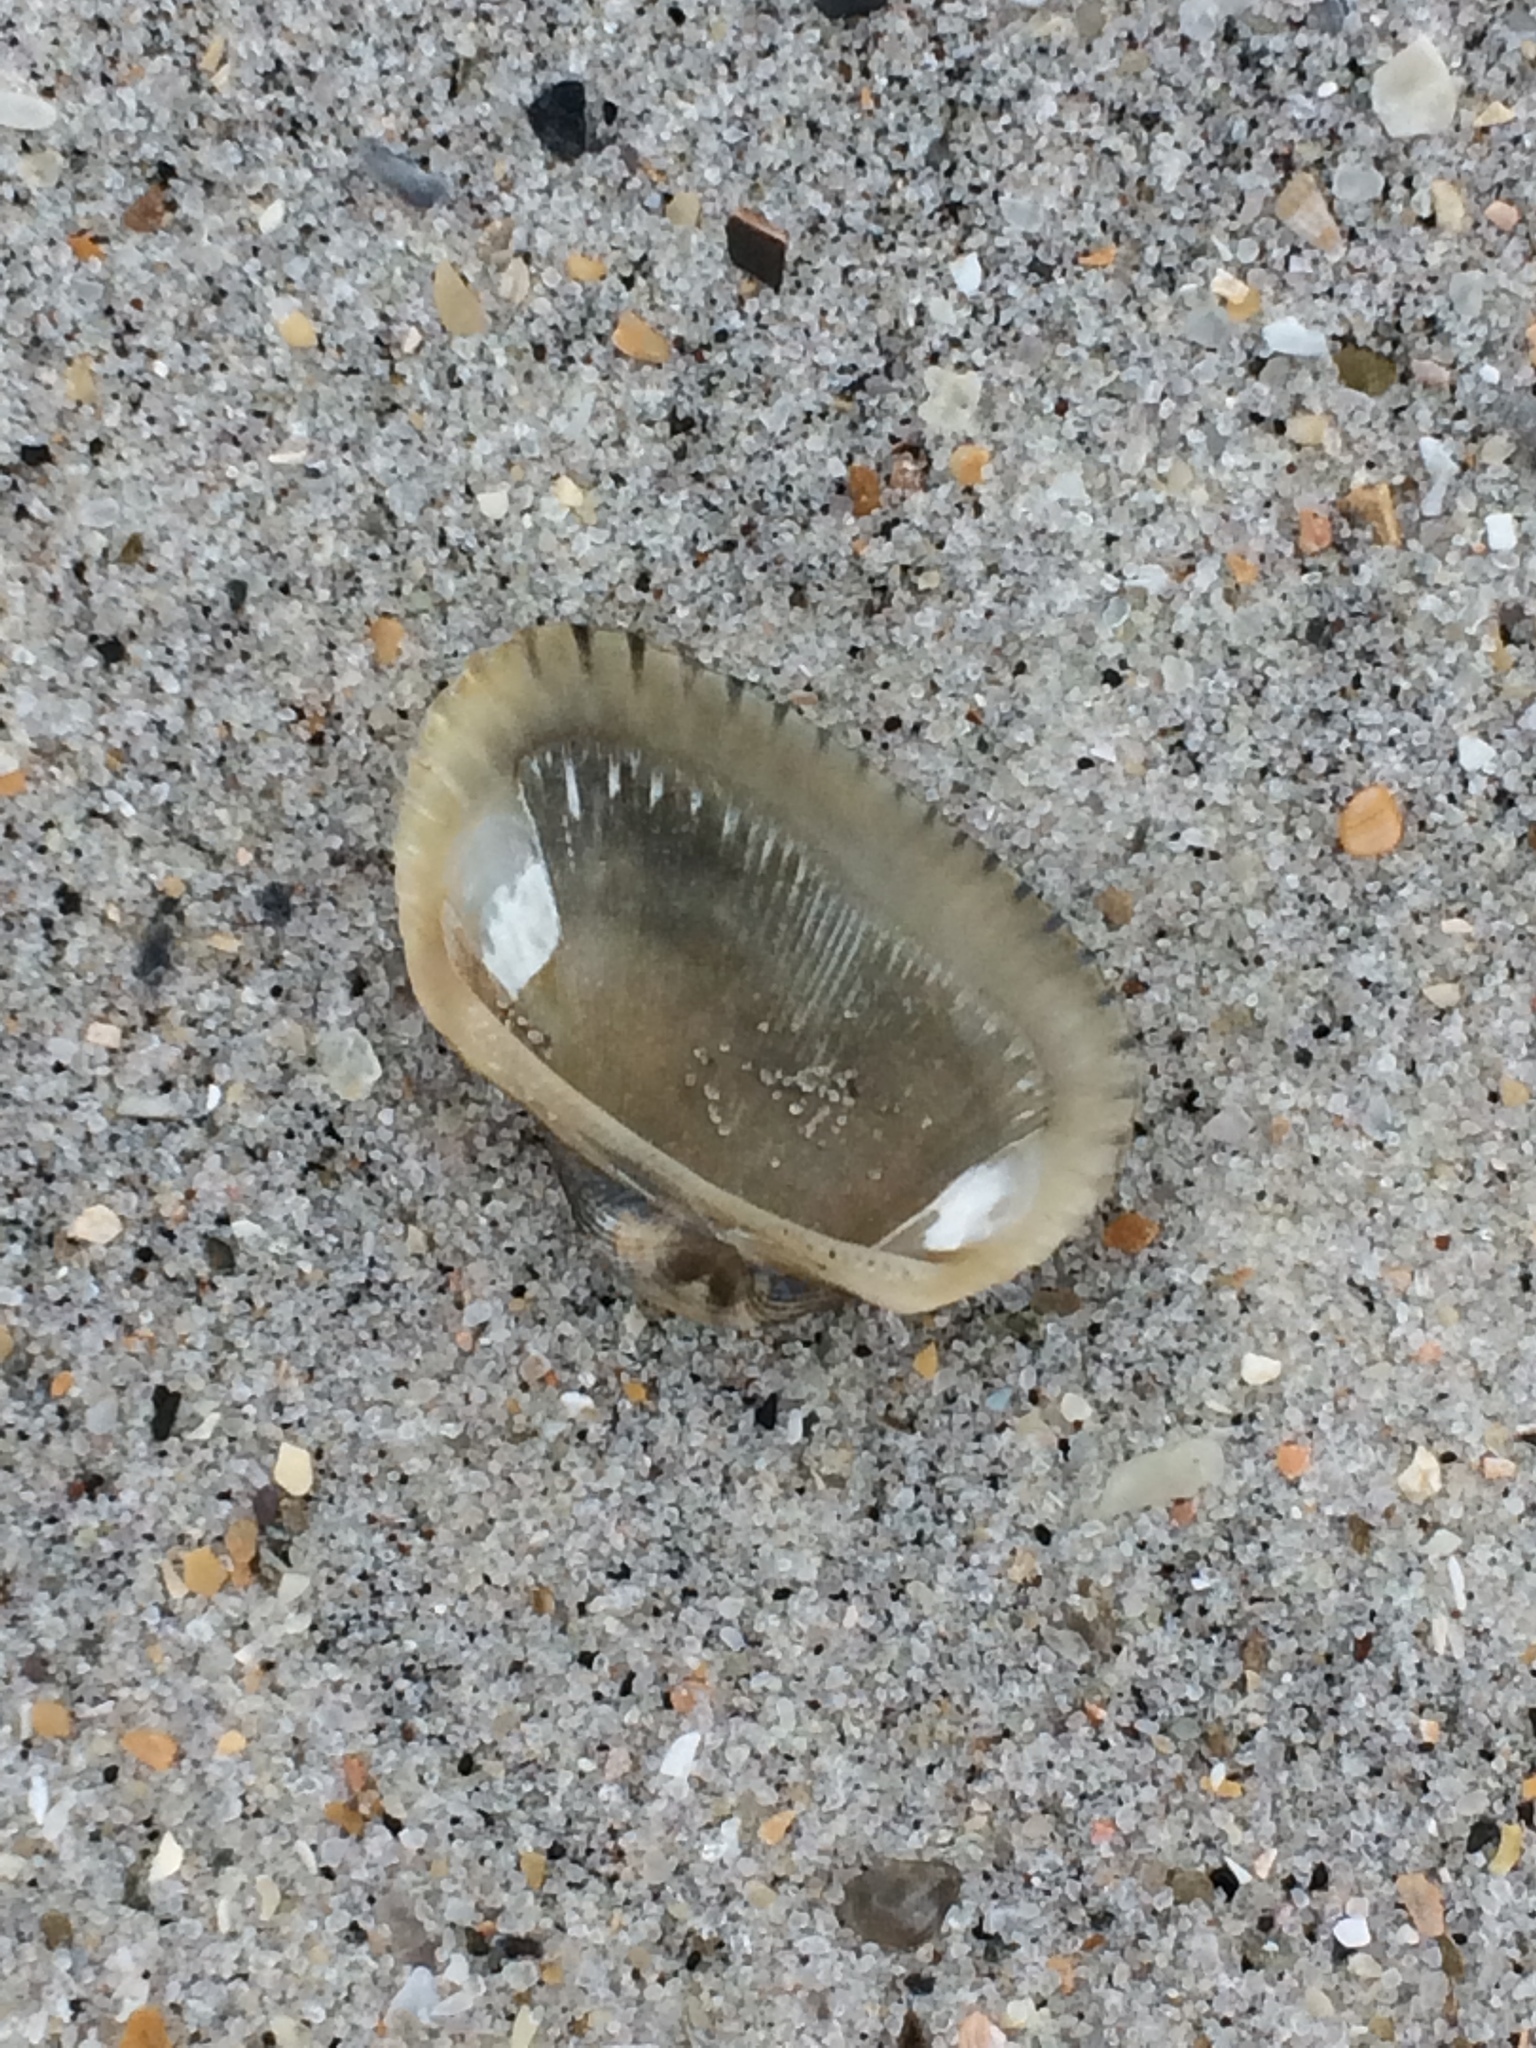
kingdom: Animalia
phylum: Mollusca
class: Bivalvia
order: Arcida
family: Arcidae
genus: Anadara
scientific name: Anadara transversa
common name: Transverse ark
